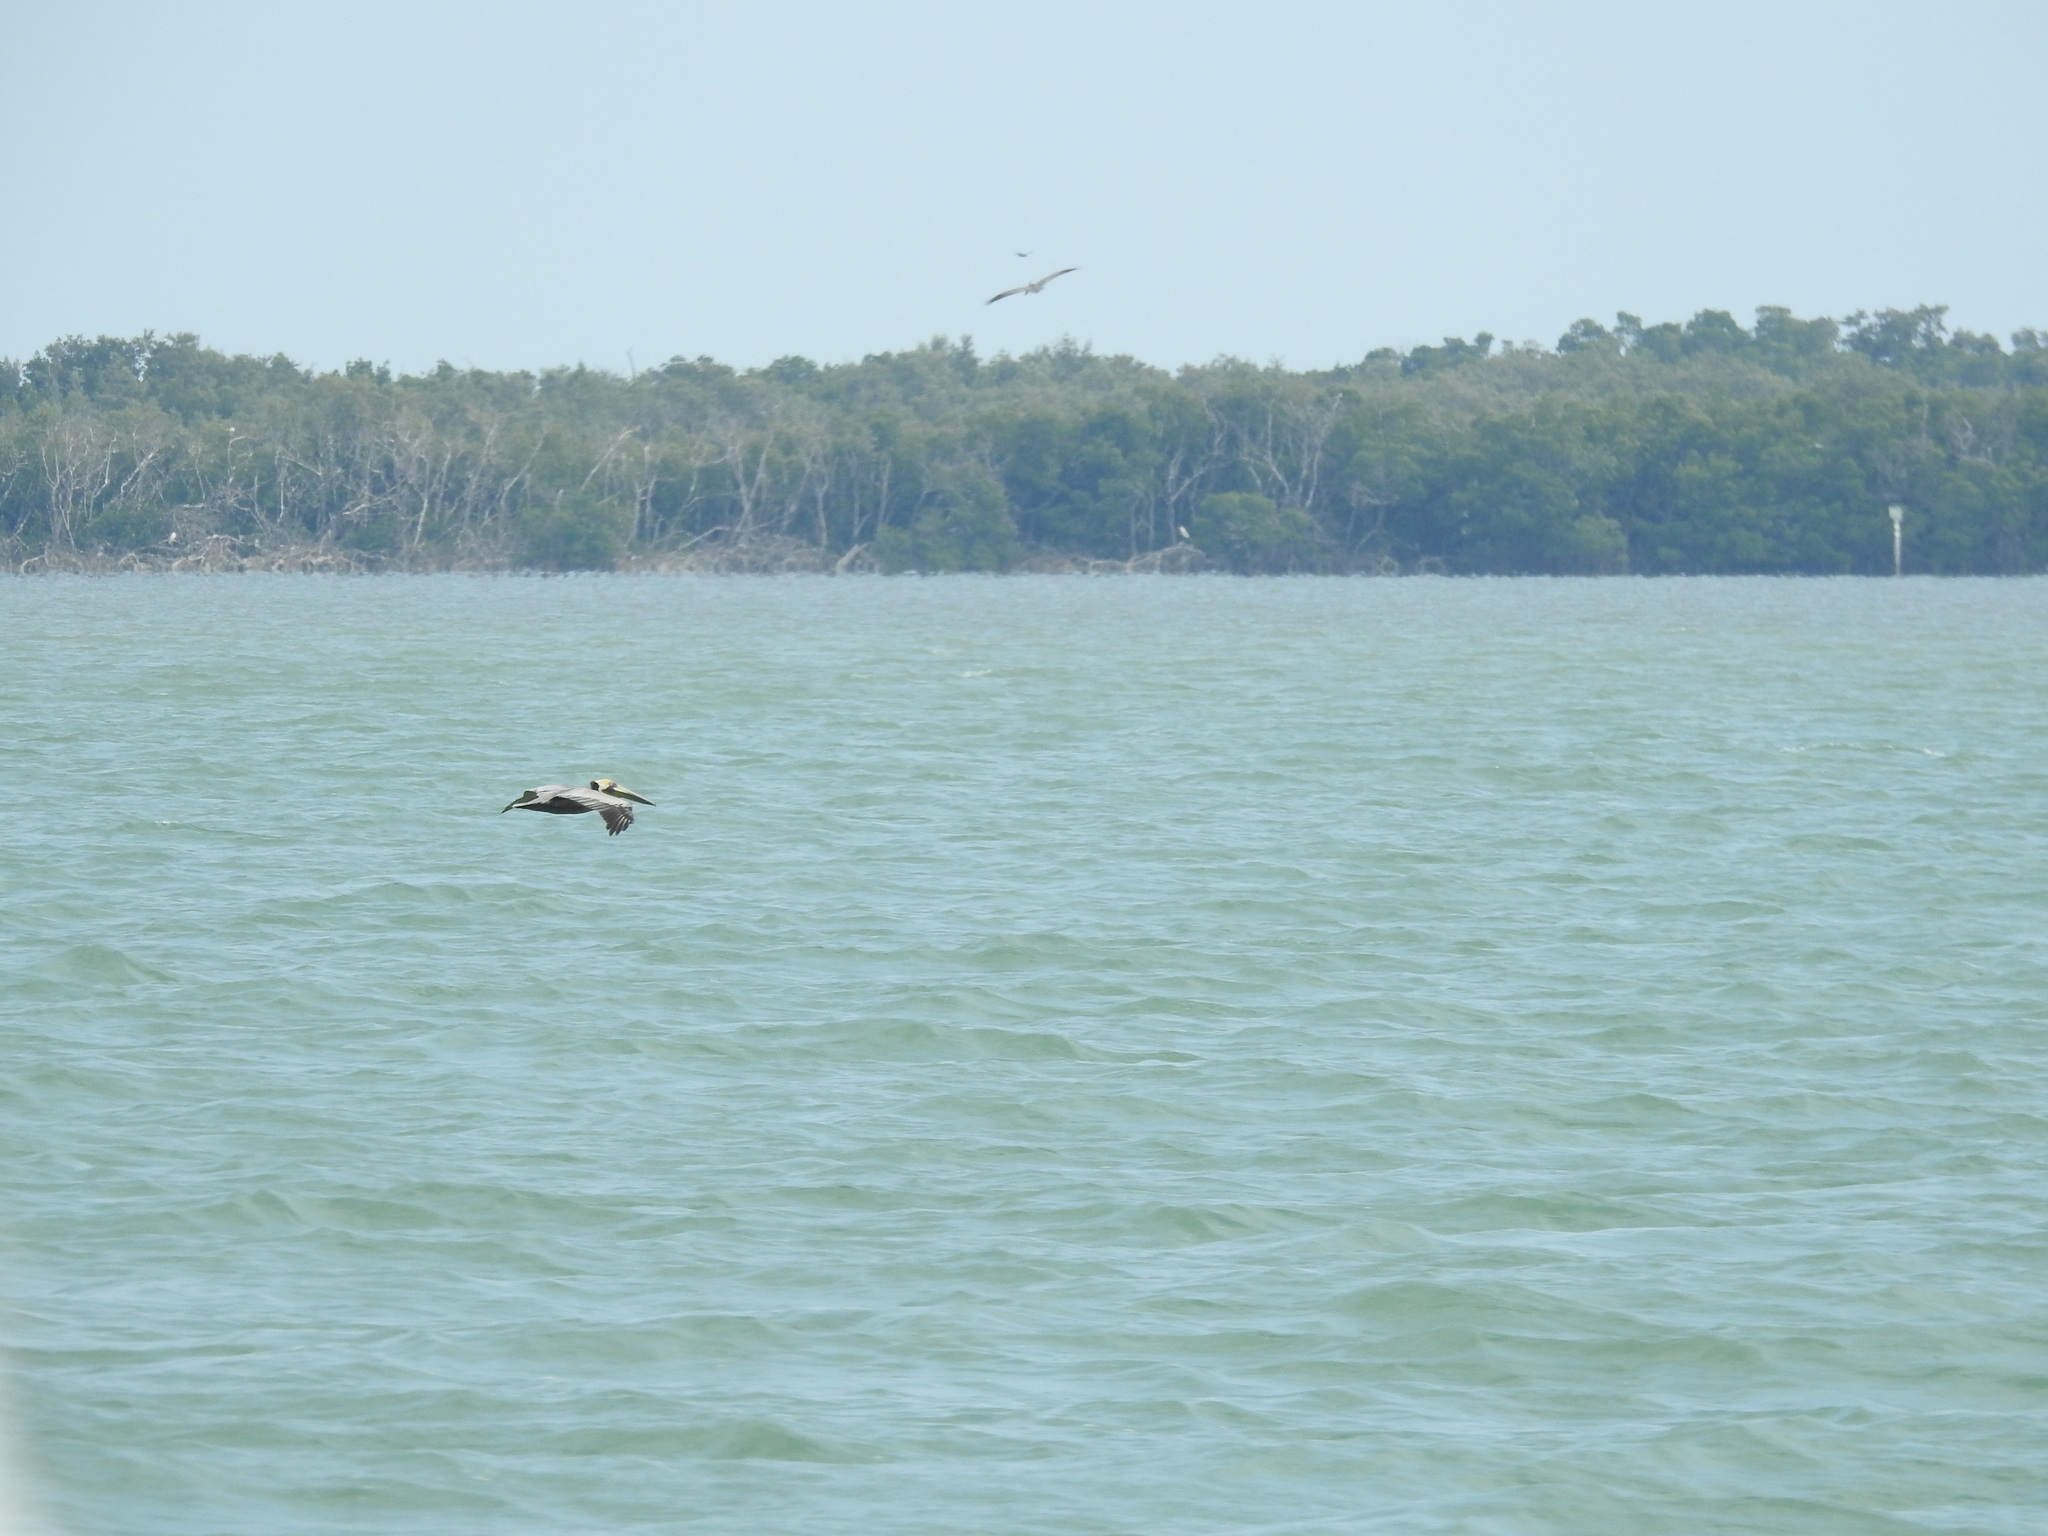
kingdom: Animalia
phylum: Chordata
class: Aves
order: Pelecaniformes
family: Pelecanidae
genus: Pelecanus
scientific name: Pelecanus occidentalis
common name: Brown pelican
